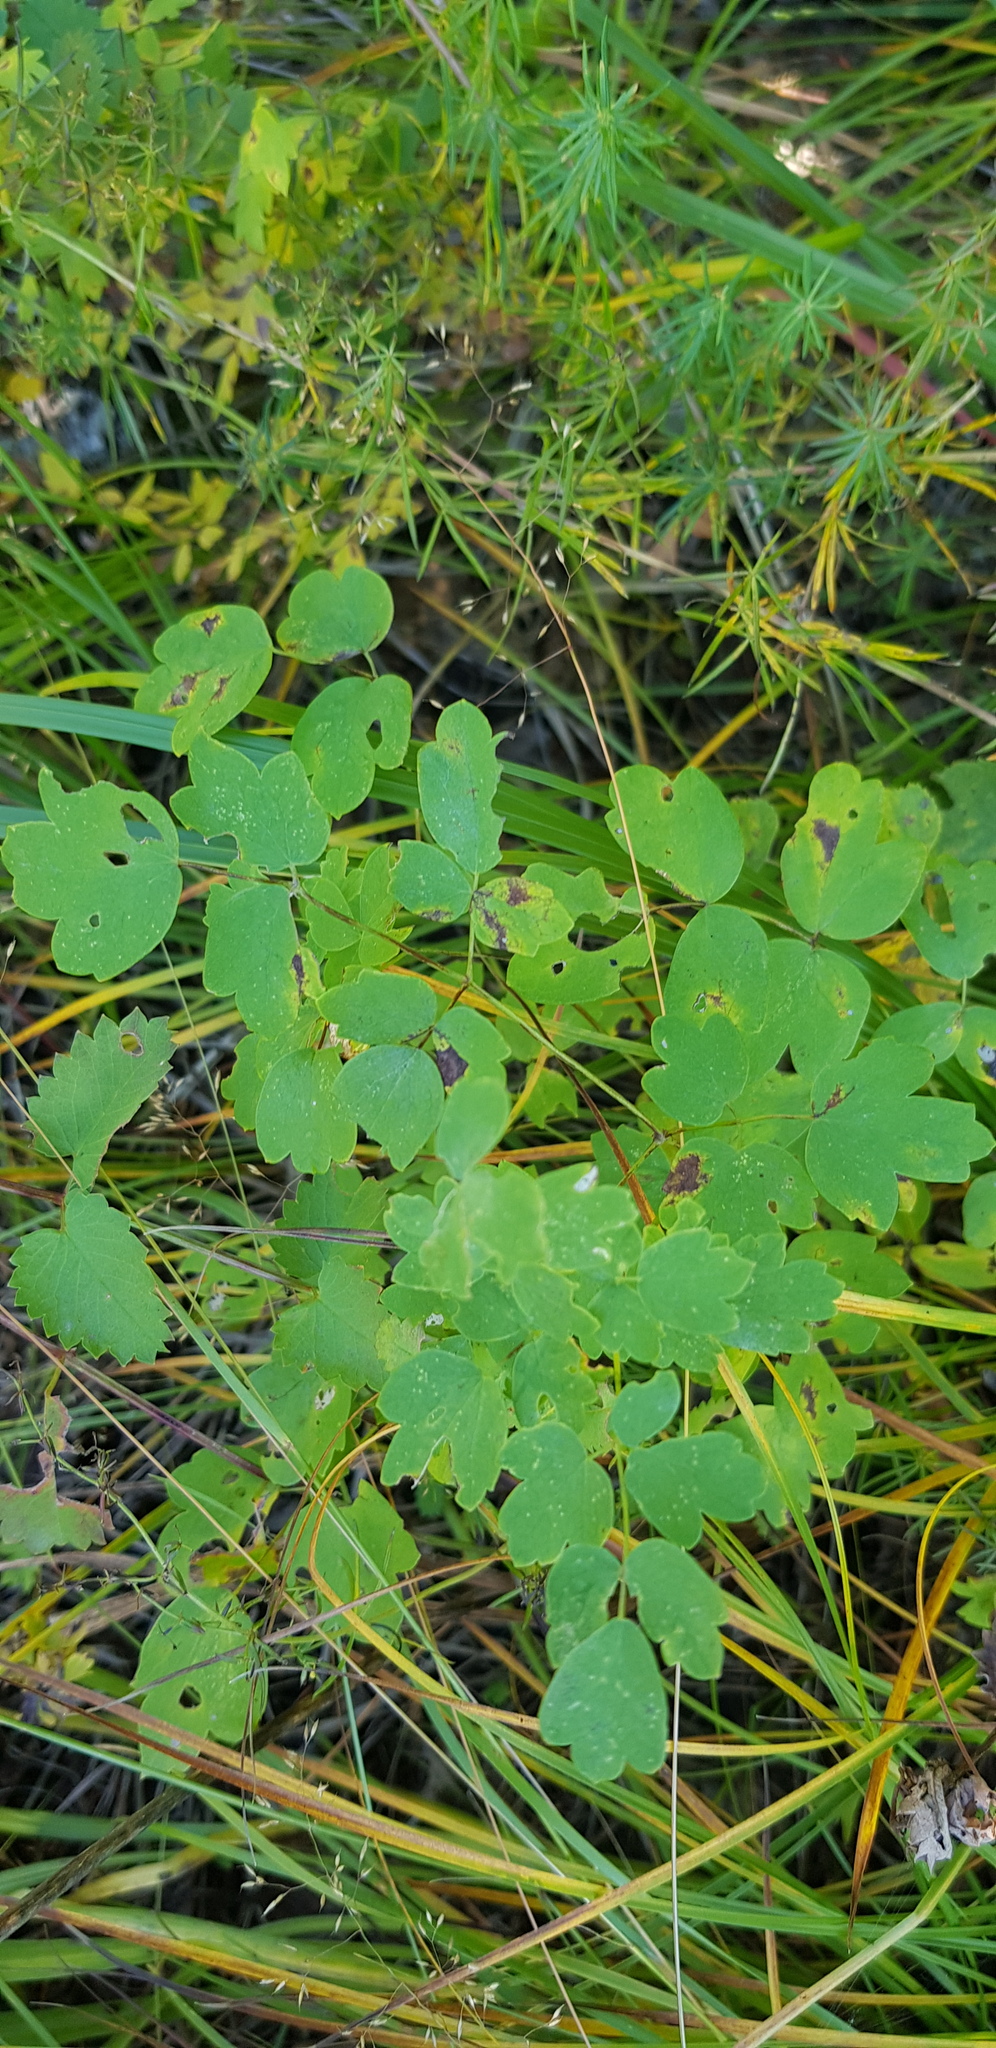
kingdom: Plantae
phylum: Tracheophyta
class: Magnoliopsida
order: Ranunculales
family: Ranunculaceae
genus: Thalictrum
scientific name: Thalictrum minus
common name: Lesser meadow-rue
